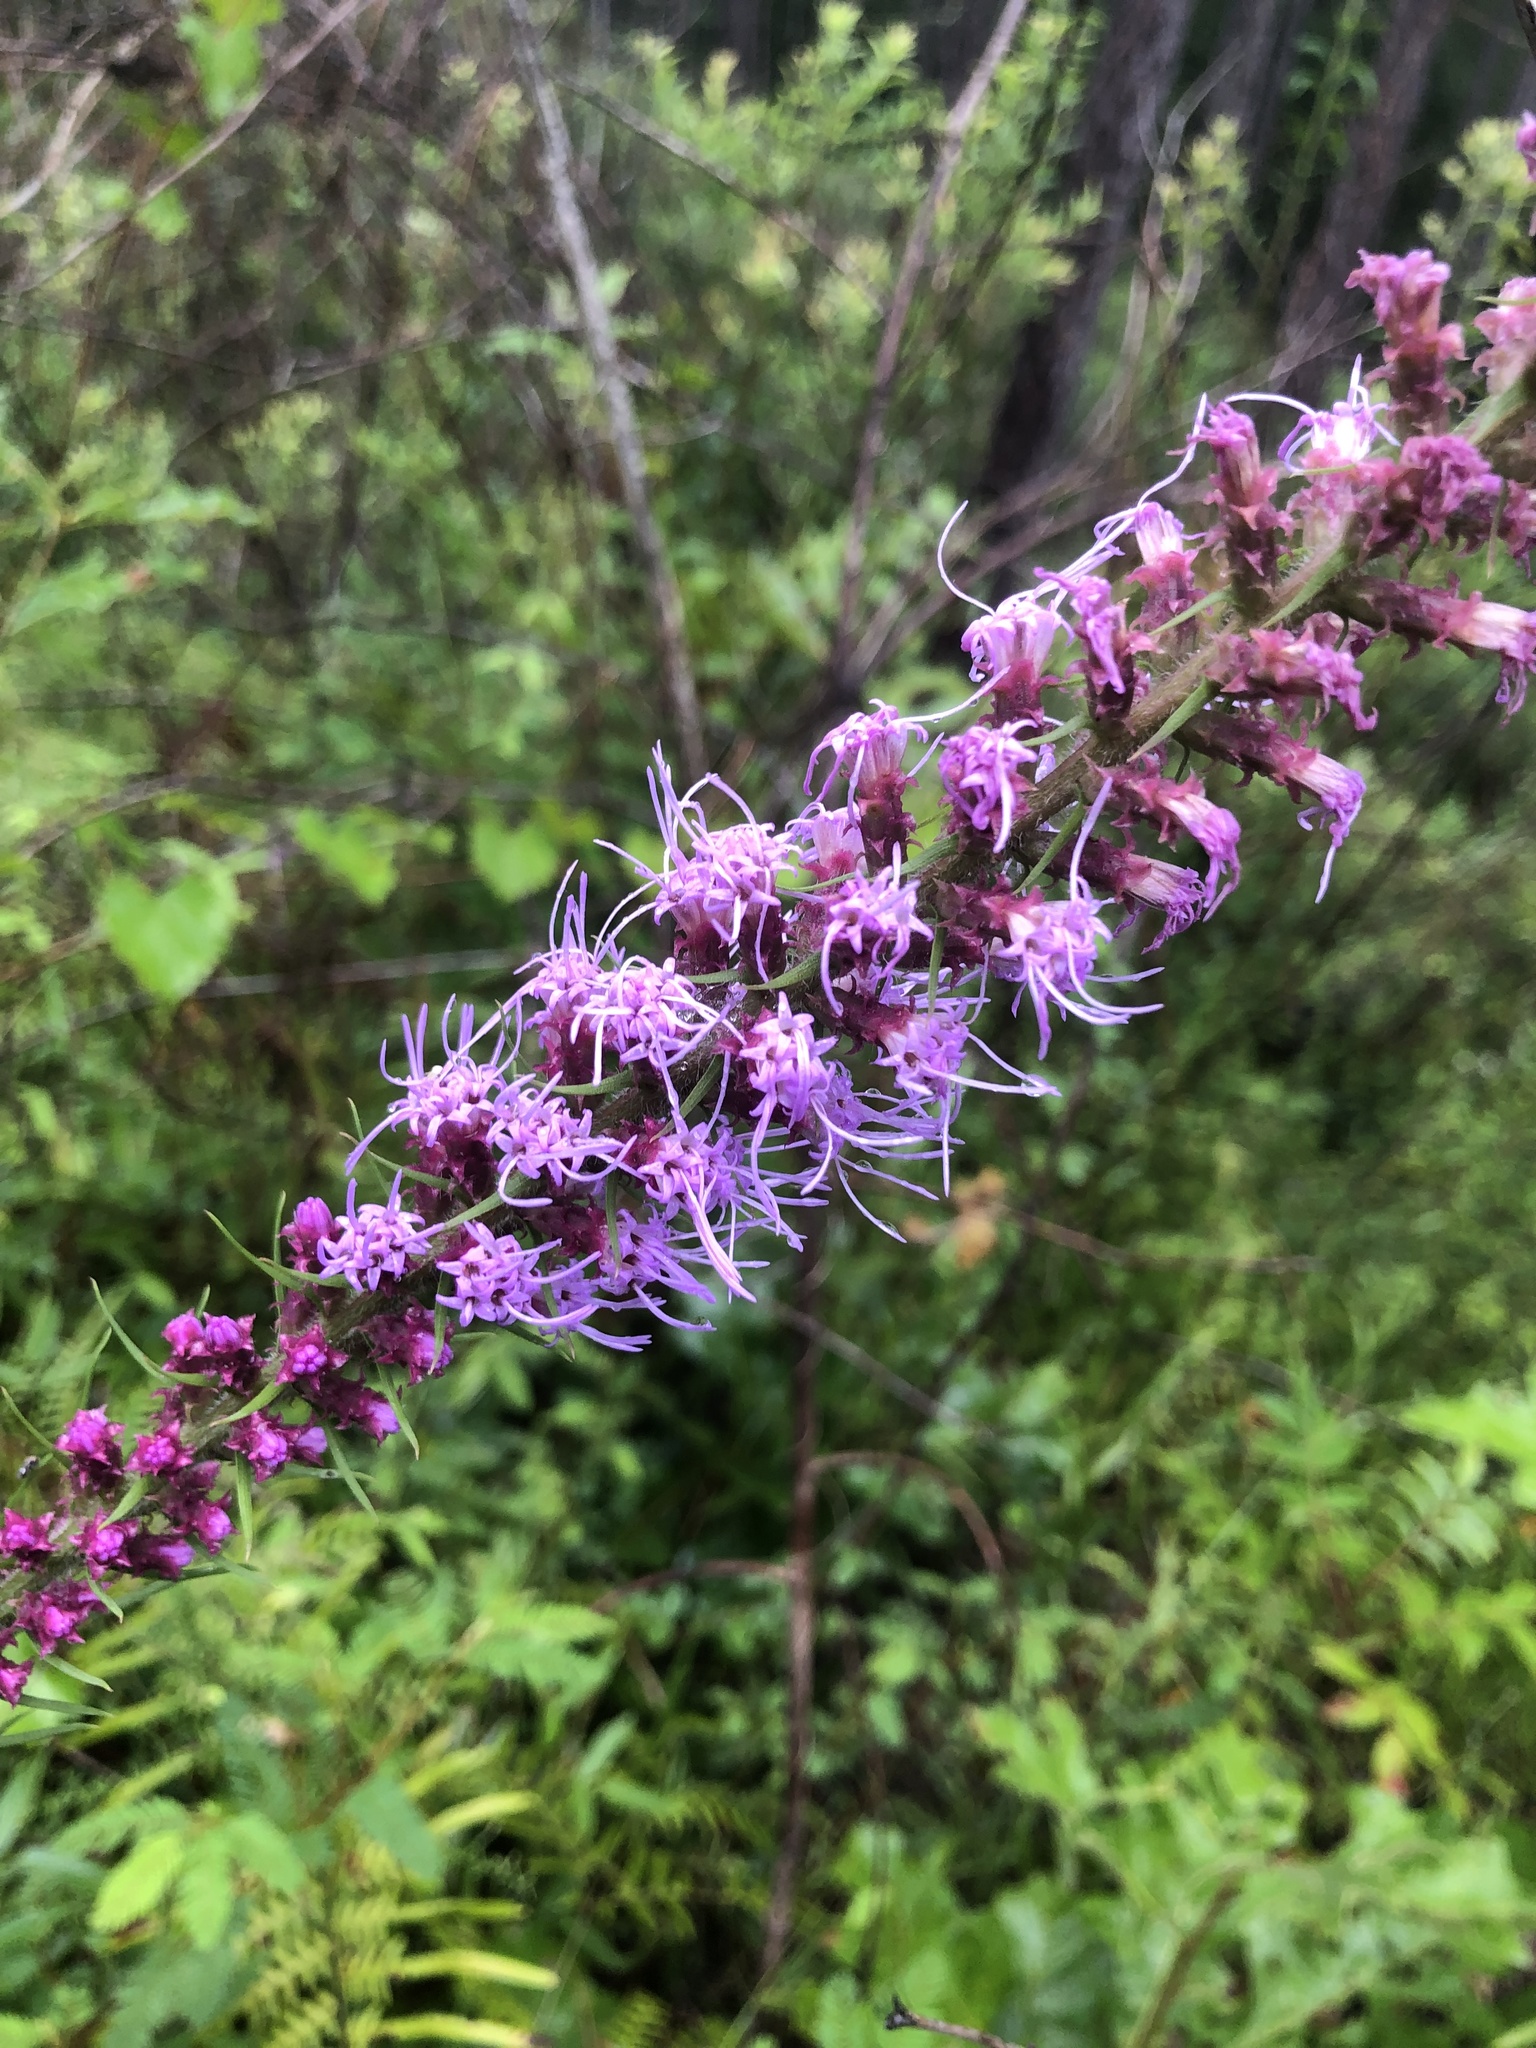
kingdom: Plantae
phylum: Tracheophyta
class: Magnoliopsida
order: Asterales
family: Asteraceae
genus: Liatris
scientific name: Liatris pycnostachya
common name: Cattail gayfeather
